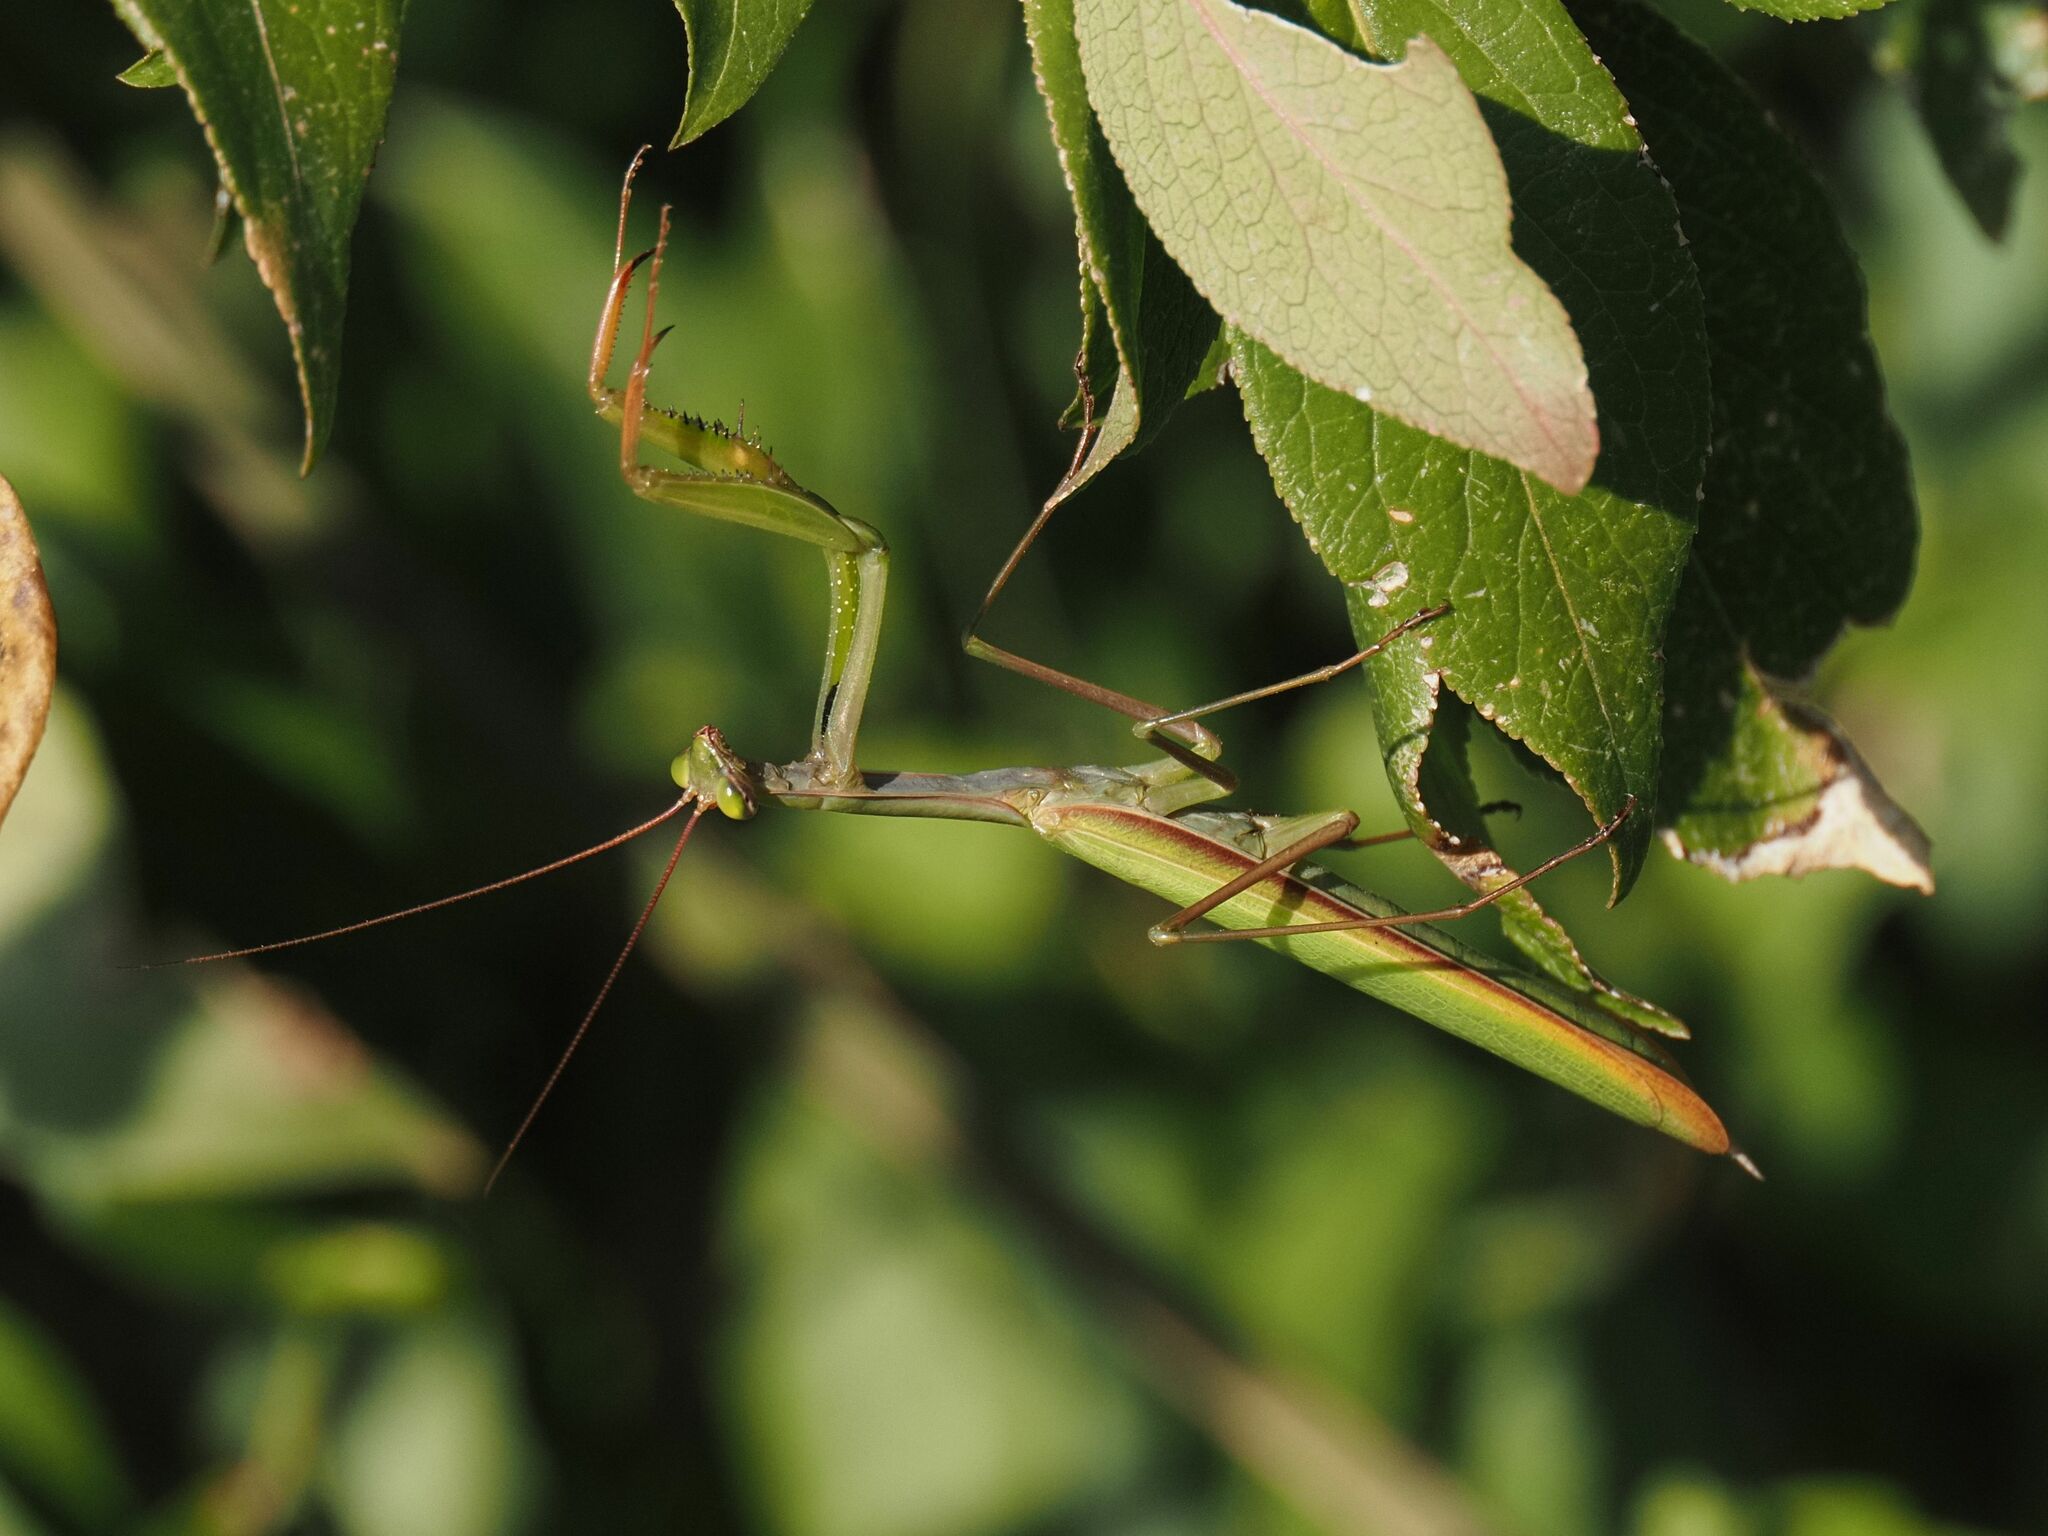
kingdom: Animalia
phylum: Arthropoda
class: Insecta
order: Mantodea
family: Mantidae
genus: Mantis
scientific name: Mantis religiosa
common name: Praying mantis
